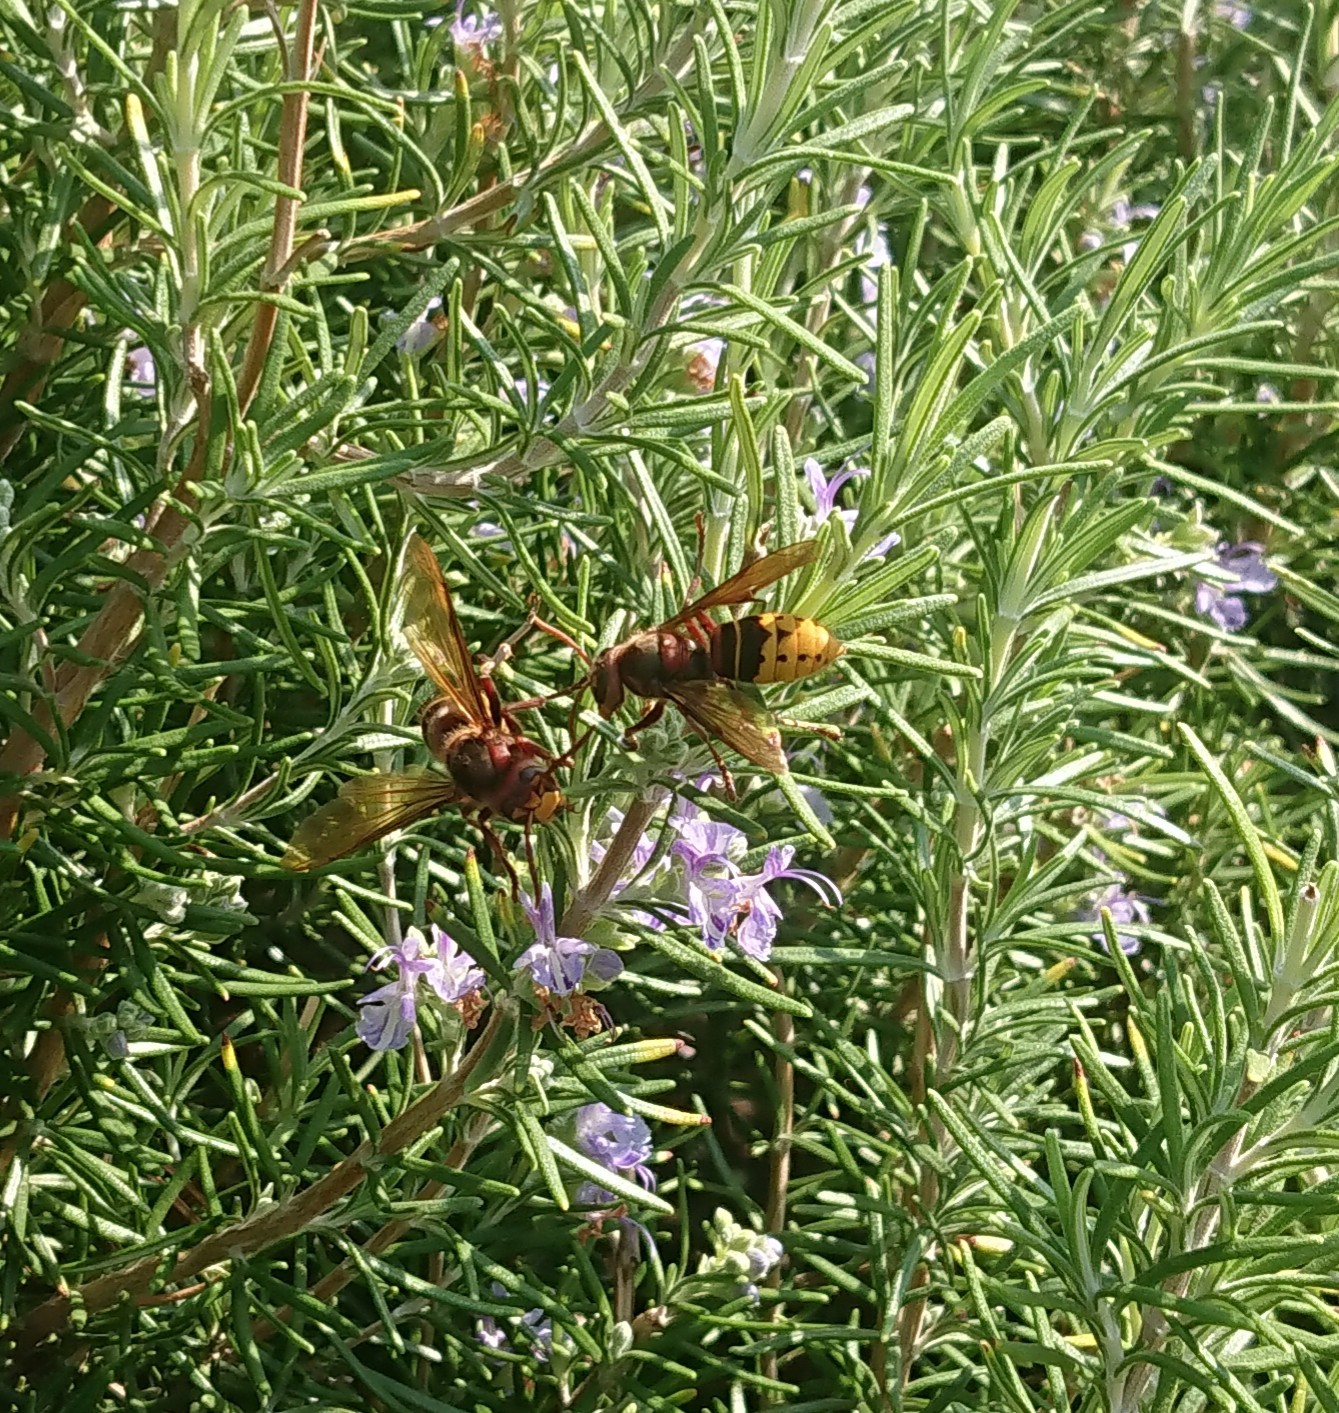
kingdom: Animalia
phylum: Arthropoda
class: Insecta
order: Hymenoptera
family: Vespidae
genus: Vespa
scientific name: Vespa crabro
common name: Hornet
